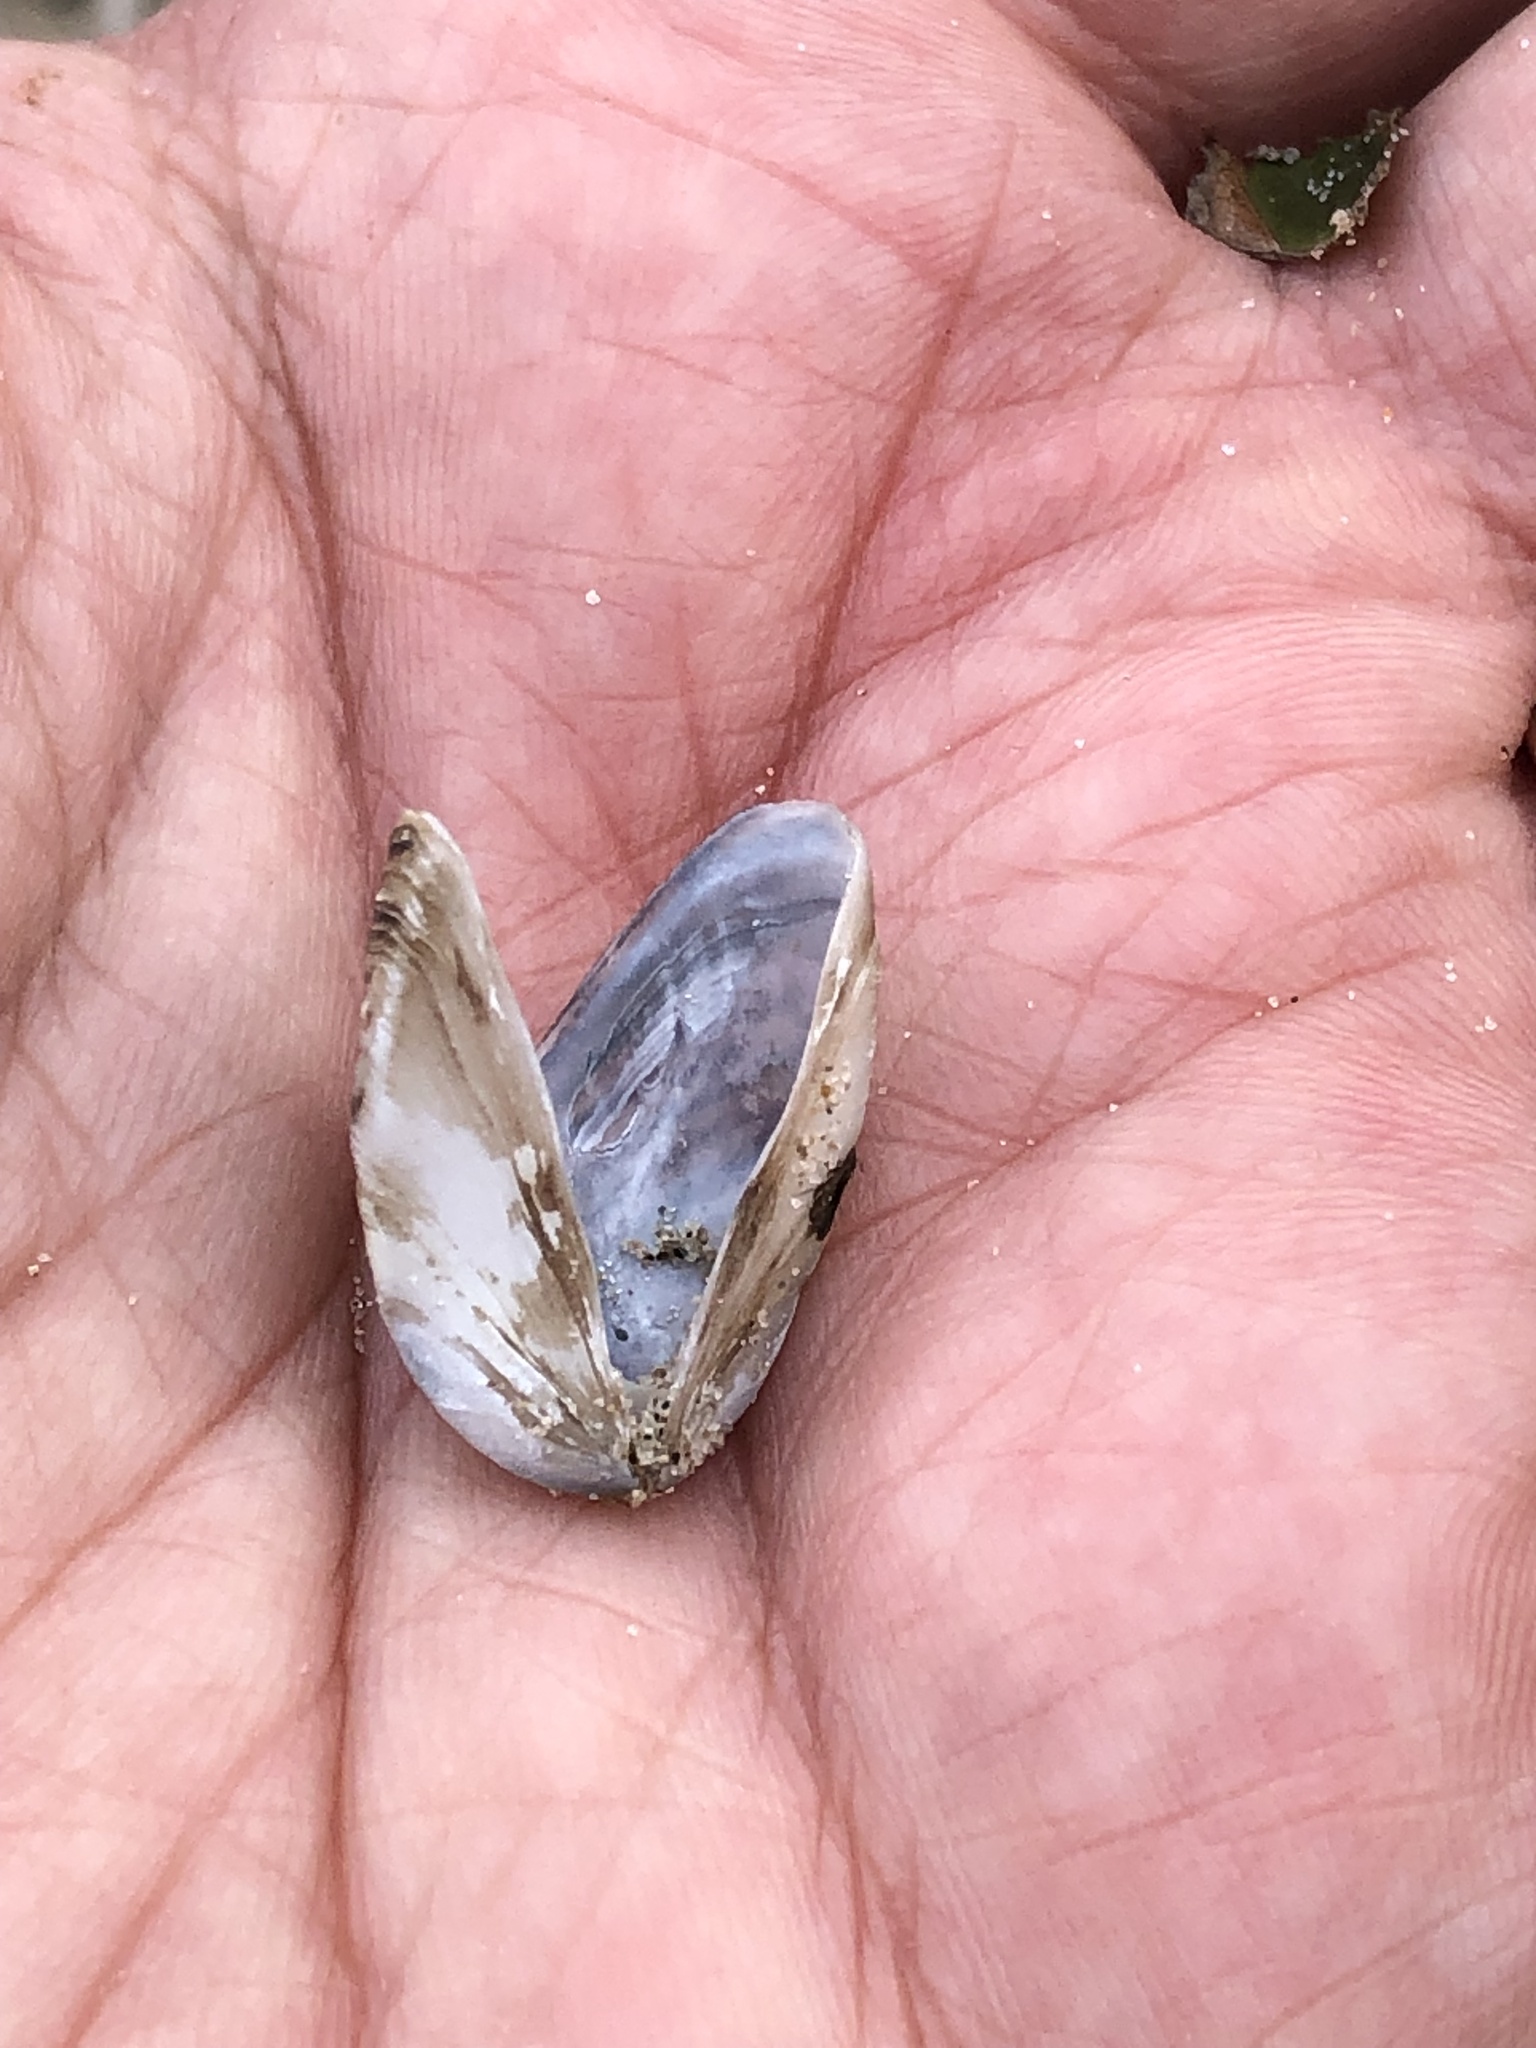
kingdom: Animalia
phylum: Mollusca
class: Bivalvia
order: Myida
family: Dreissenidae
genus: Dreissena
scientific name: Dreissena polymorpha
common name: Zebra mussel
